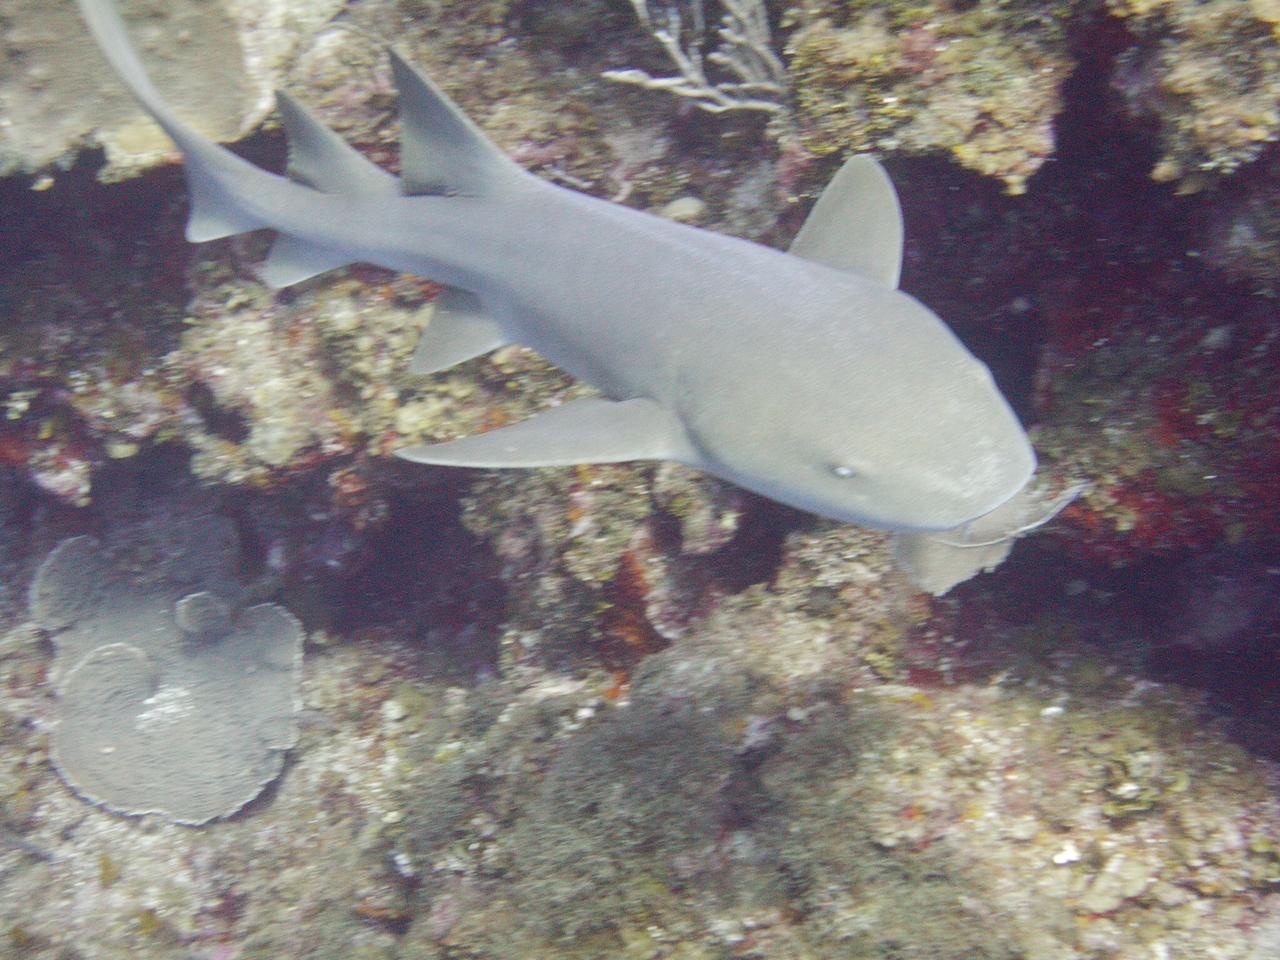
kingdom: Animalia
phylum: Chordata
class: Elasmobranchii
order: Orectolobiformes
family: Ginglymostomatidae
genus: Ginglymostoma
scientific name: Ginglymostoma cirratum
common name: Nurse shark
